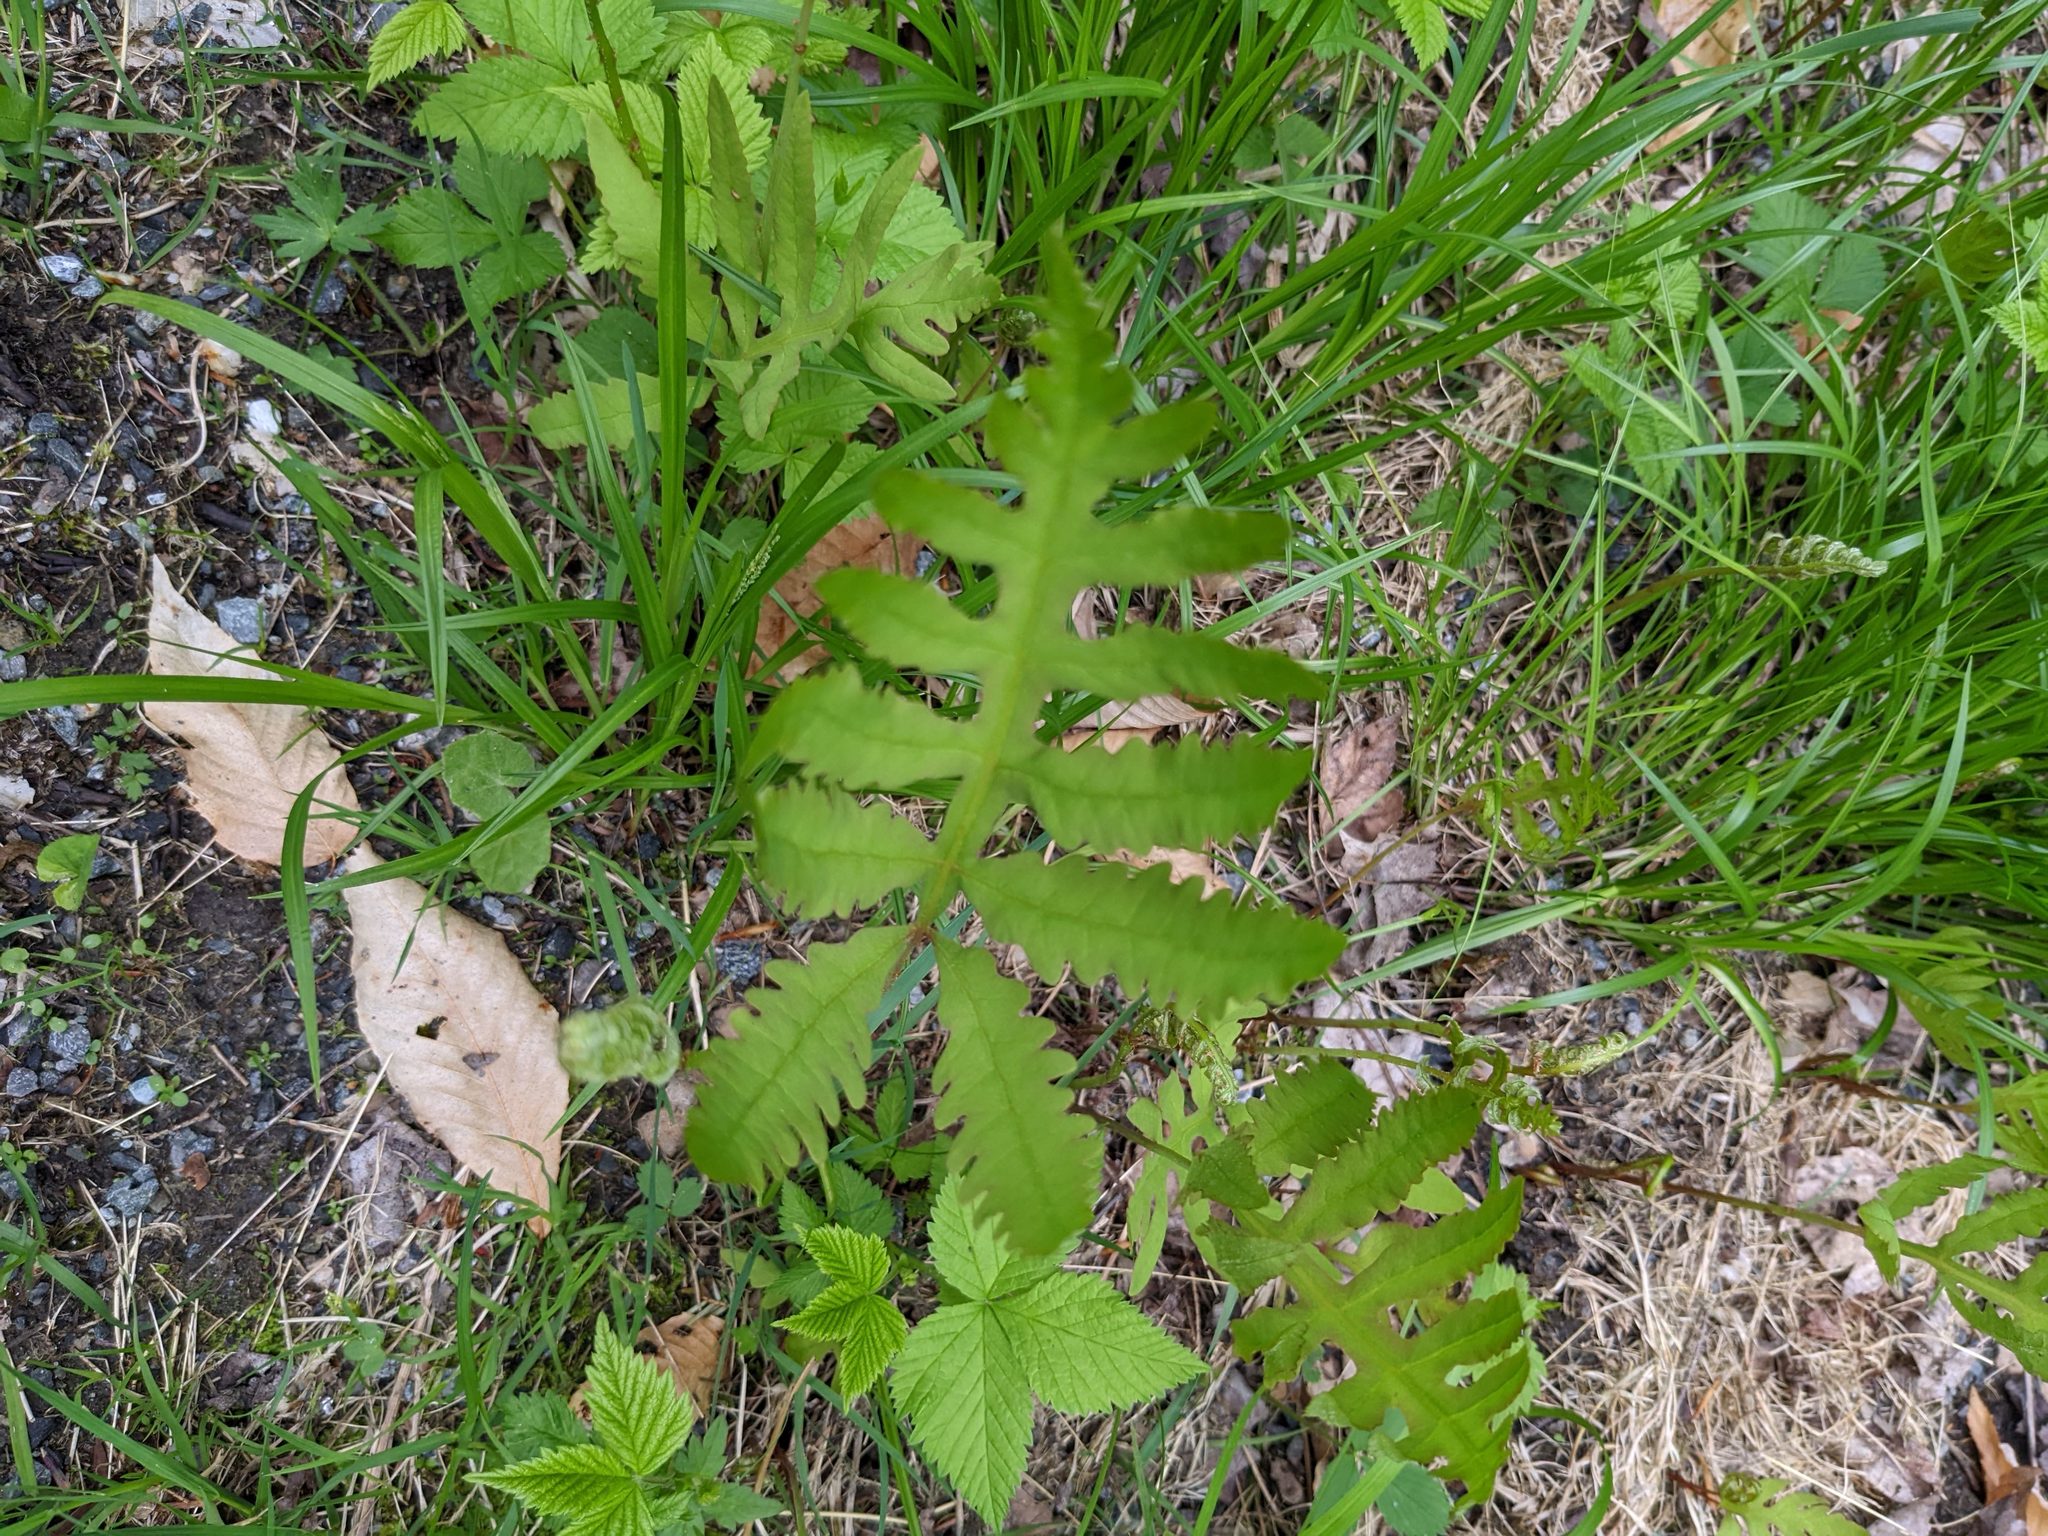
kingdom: Plantae
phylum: Tracheophyta
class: Polypodiopsida
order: Polypodiales
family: Onocleaceae
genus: Onoclea
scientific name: Onoclea sensibilis
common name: Sensitive fern
